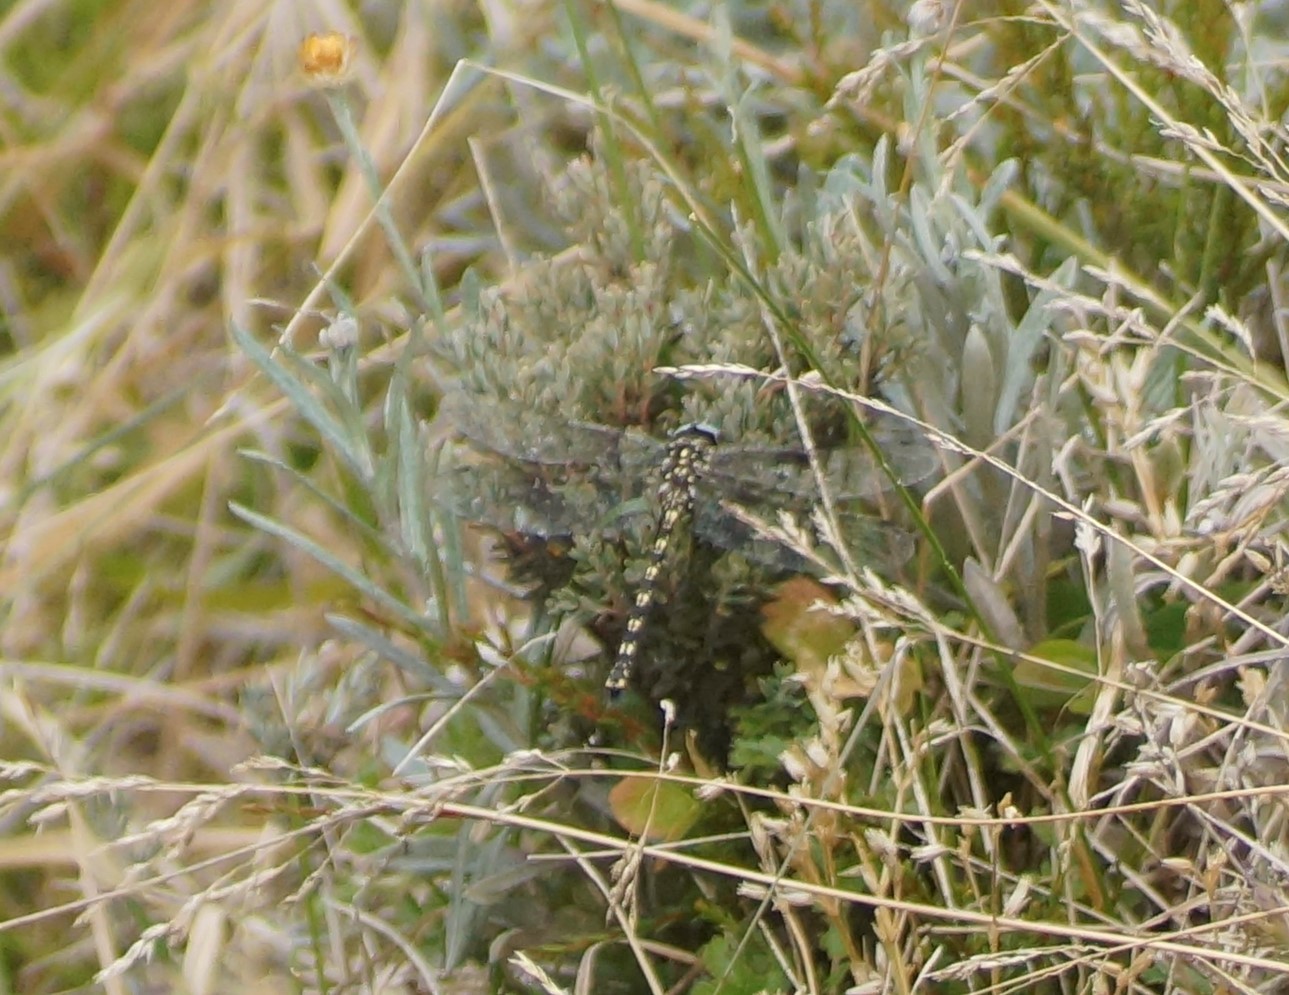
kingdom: Animalia
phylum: Arthropoda
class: Insecta
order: Odonata
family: Aeshnidae
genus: Austroaeschna
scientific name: Austroaeschna flavomaculata
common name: Alpine darner
